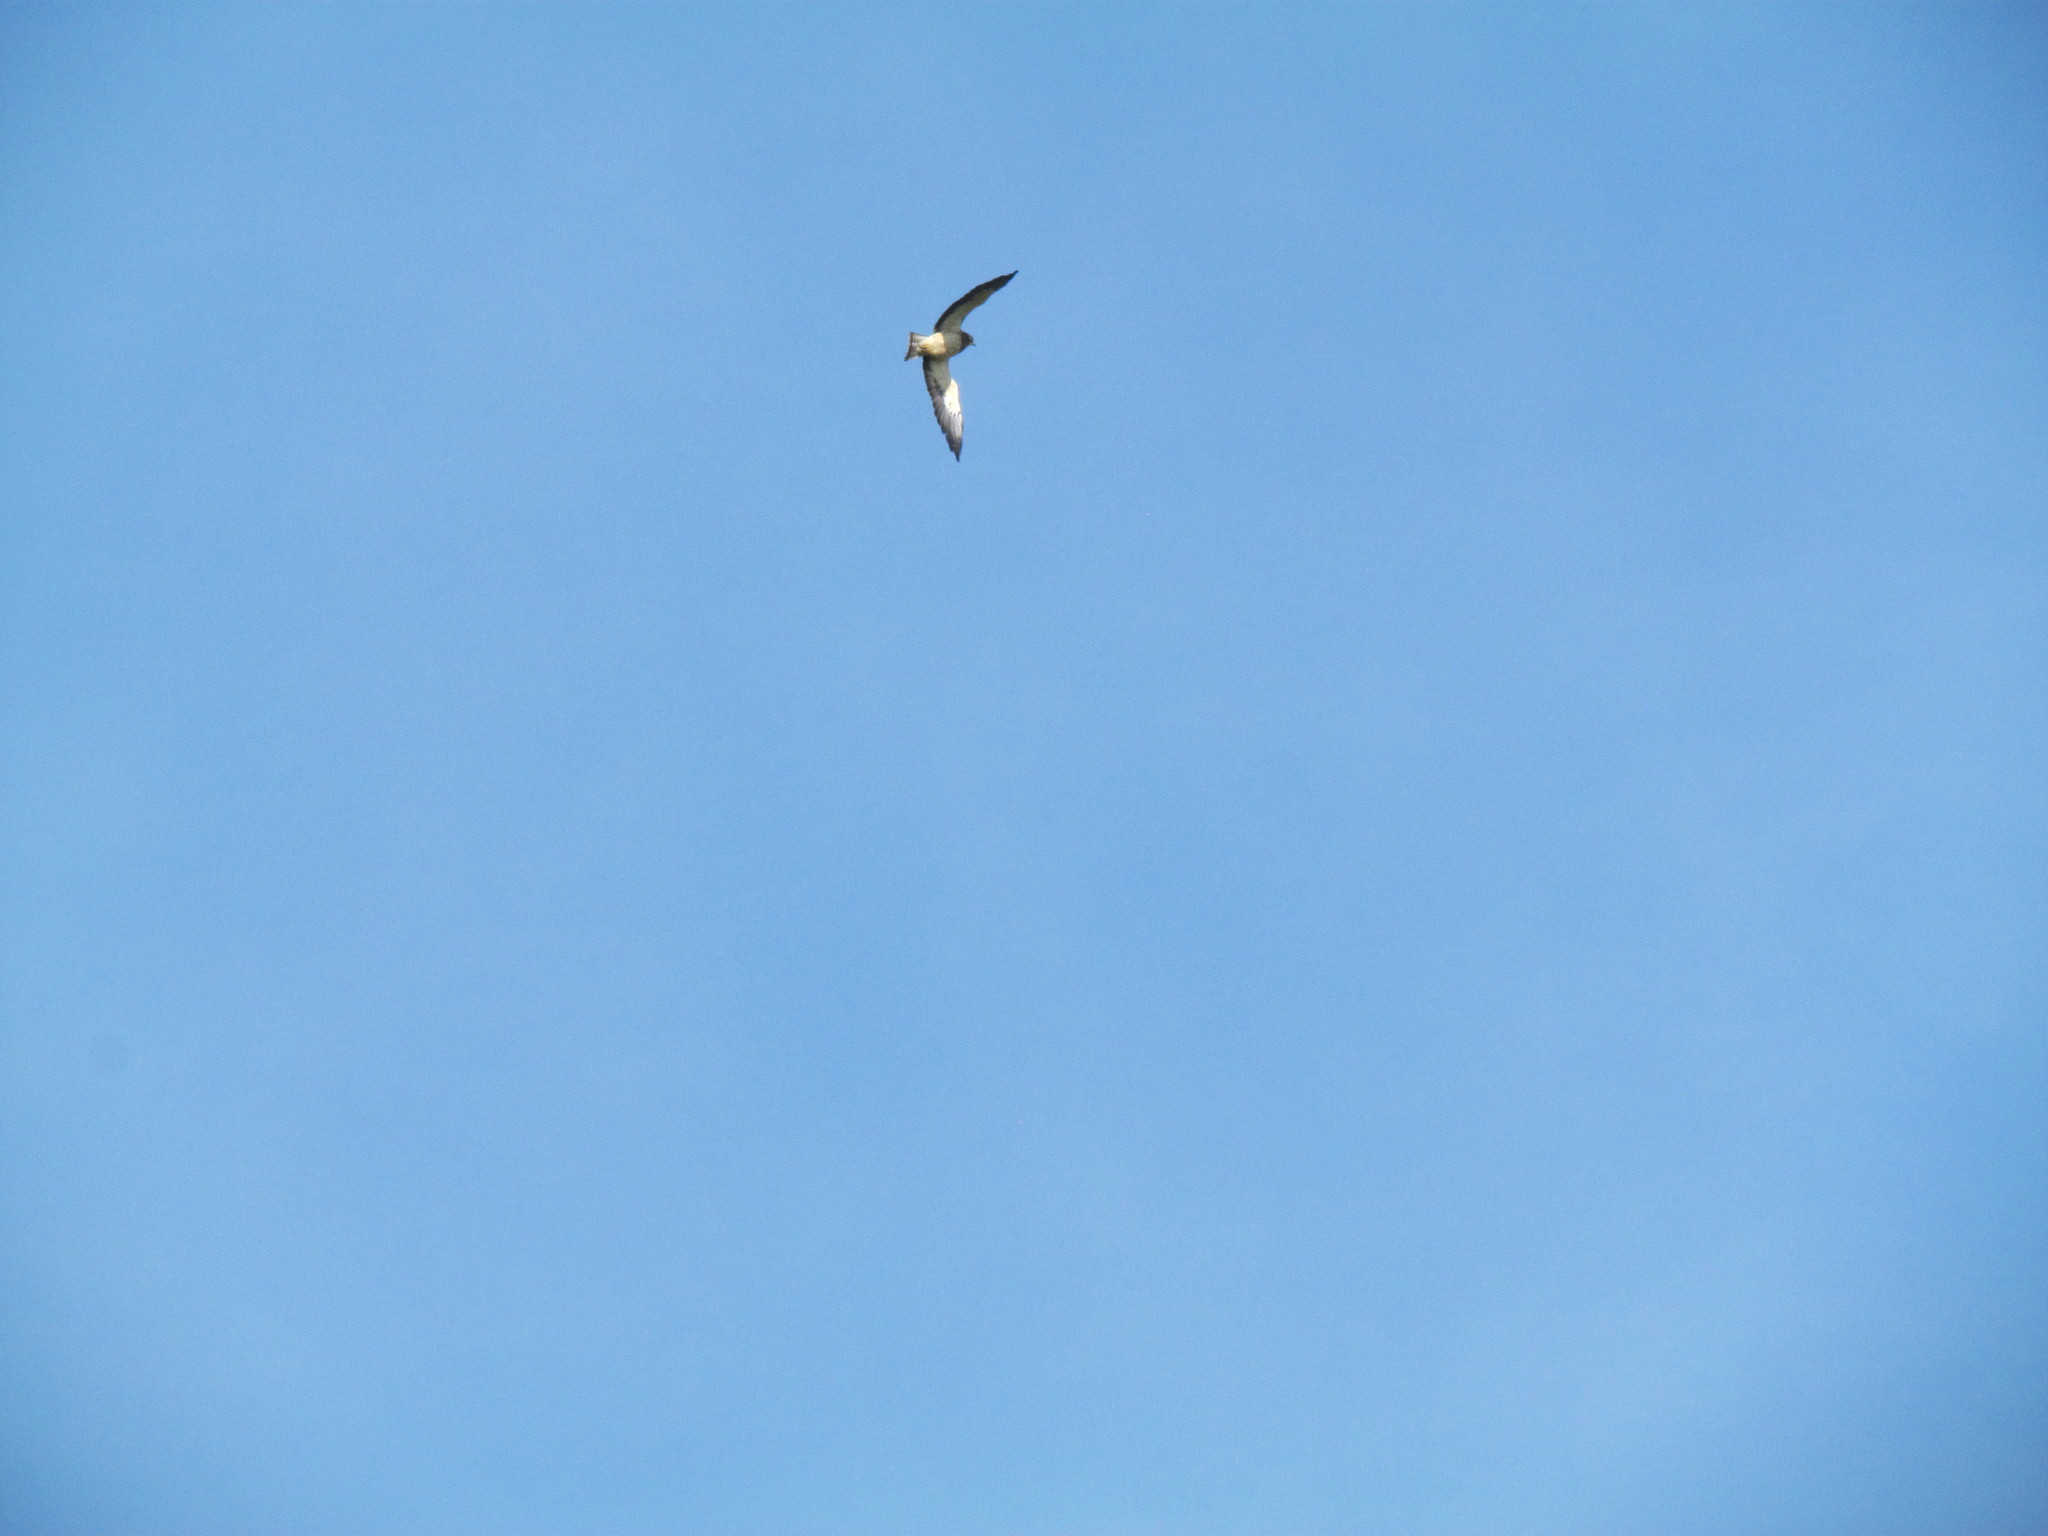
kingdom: Animalia
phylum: Chordata
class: Aves
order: Accipitriformes
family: Accipitridae
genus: Buteo
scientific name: Buteo swainsoni
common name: Swainson's hawk
